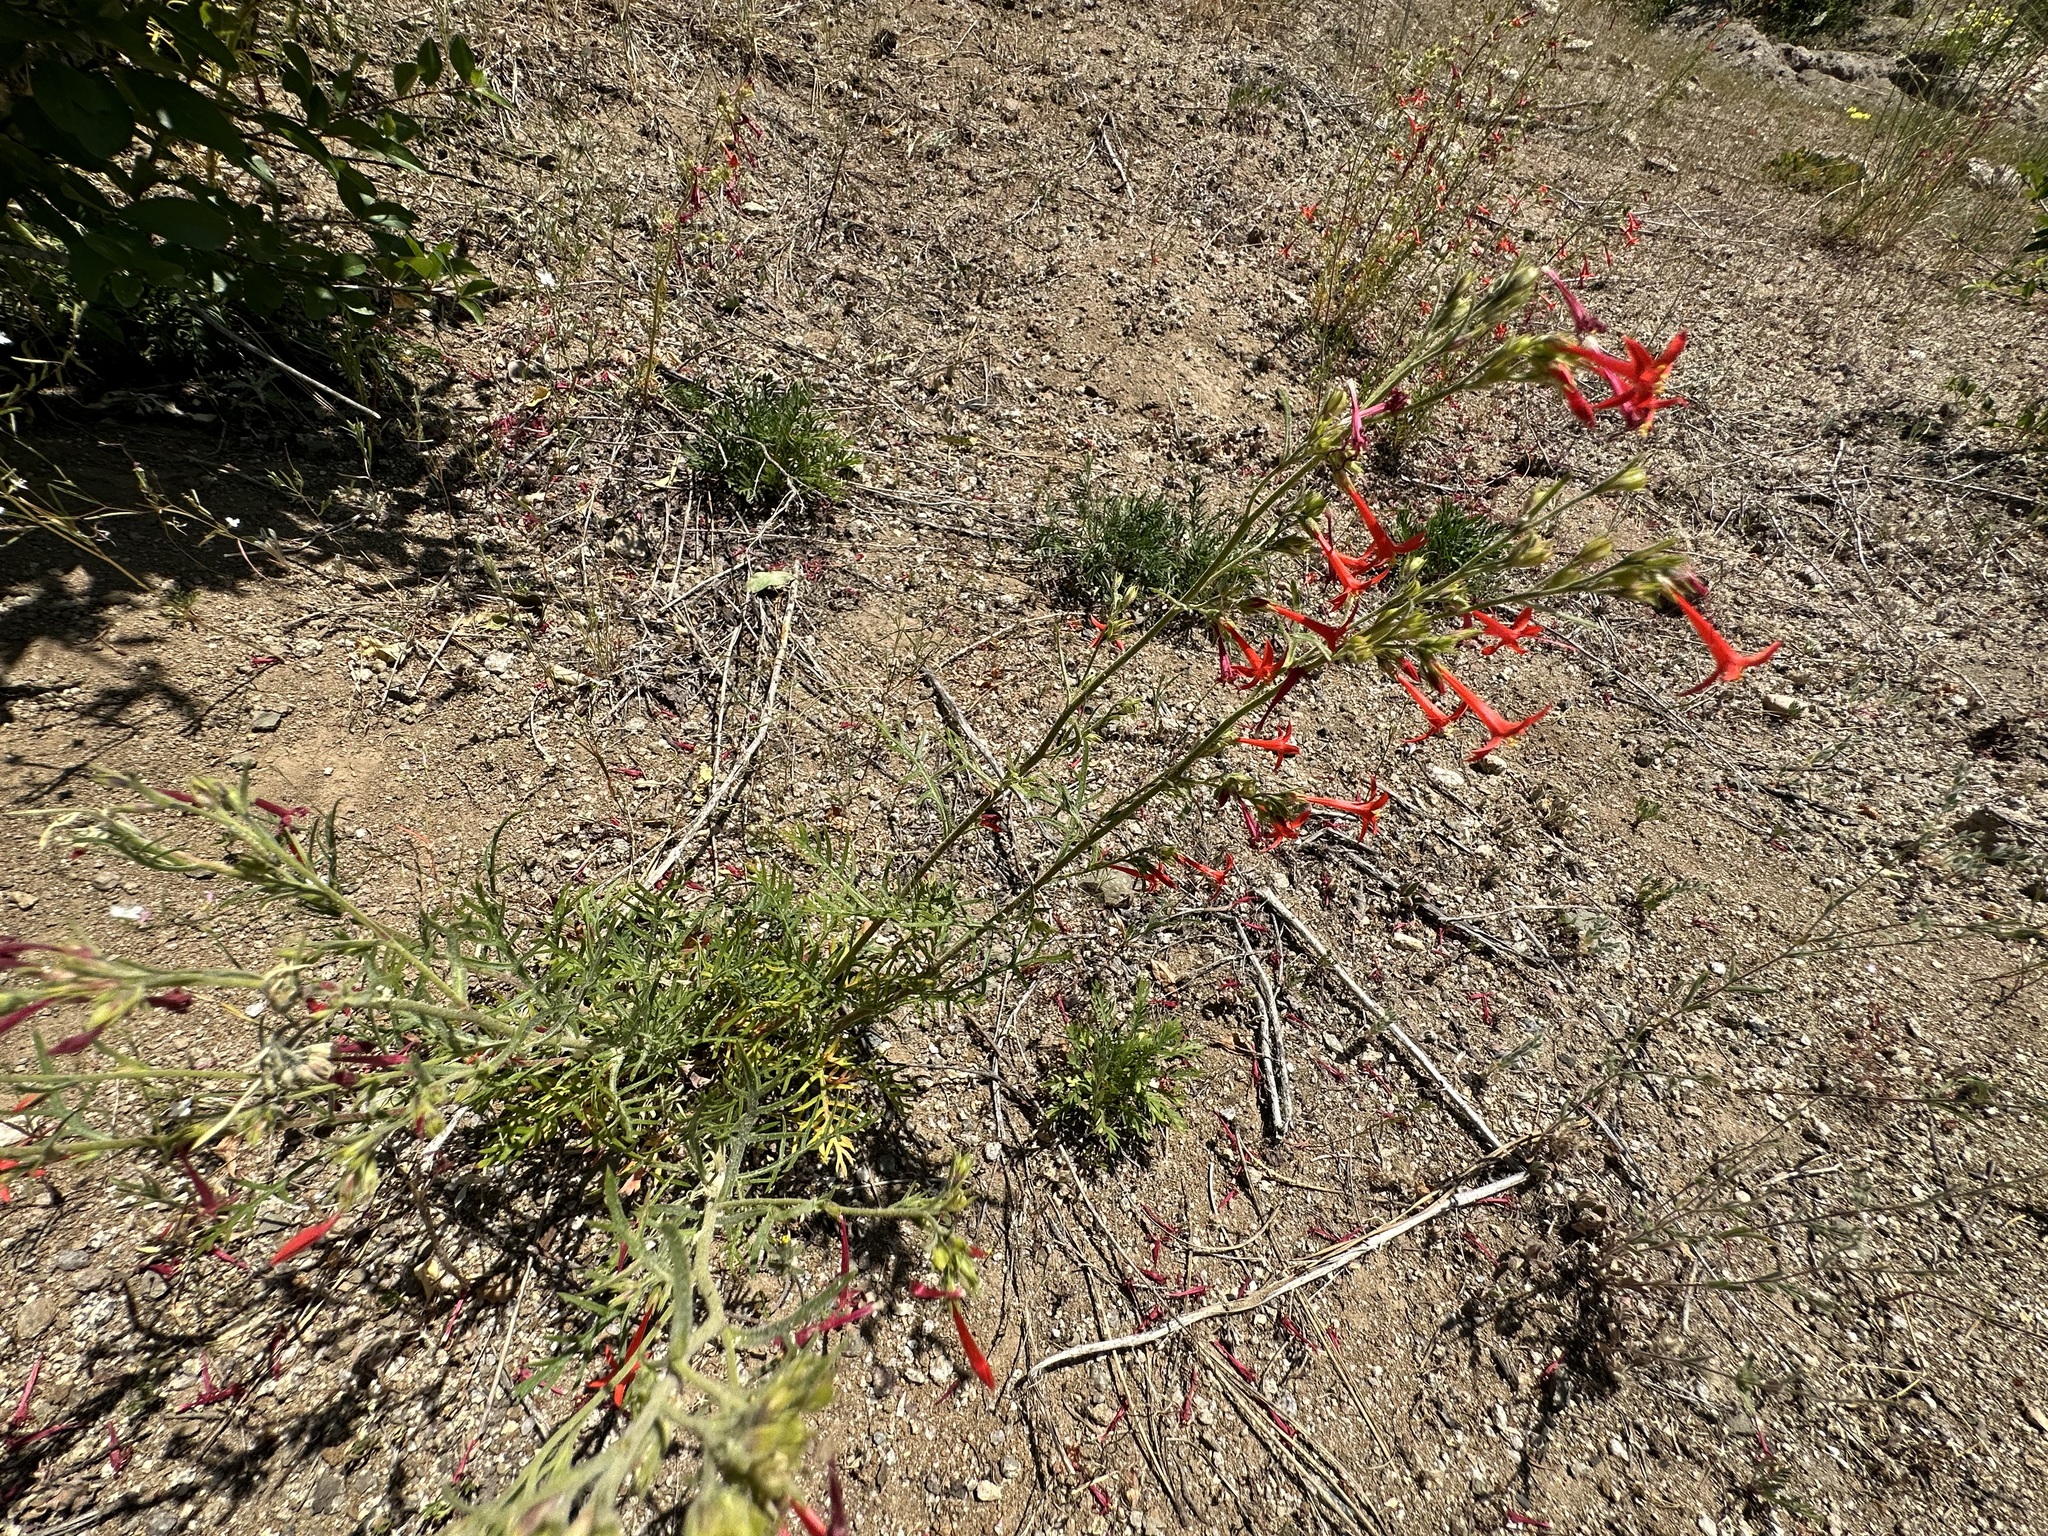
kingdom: Plantae
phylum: Tracheophyta
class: Magnoliopsida
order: Ericales
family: Polemoniaceae
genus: Ipomopsis
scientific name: Ipomopsis aggregata
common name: Scarlet gilia
